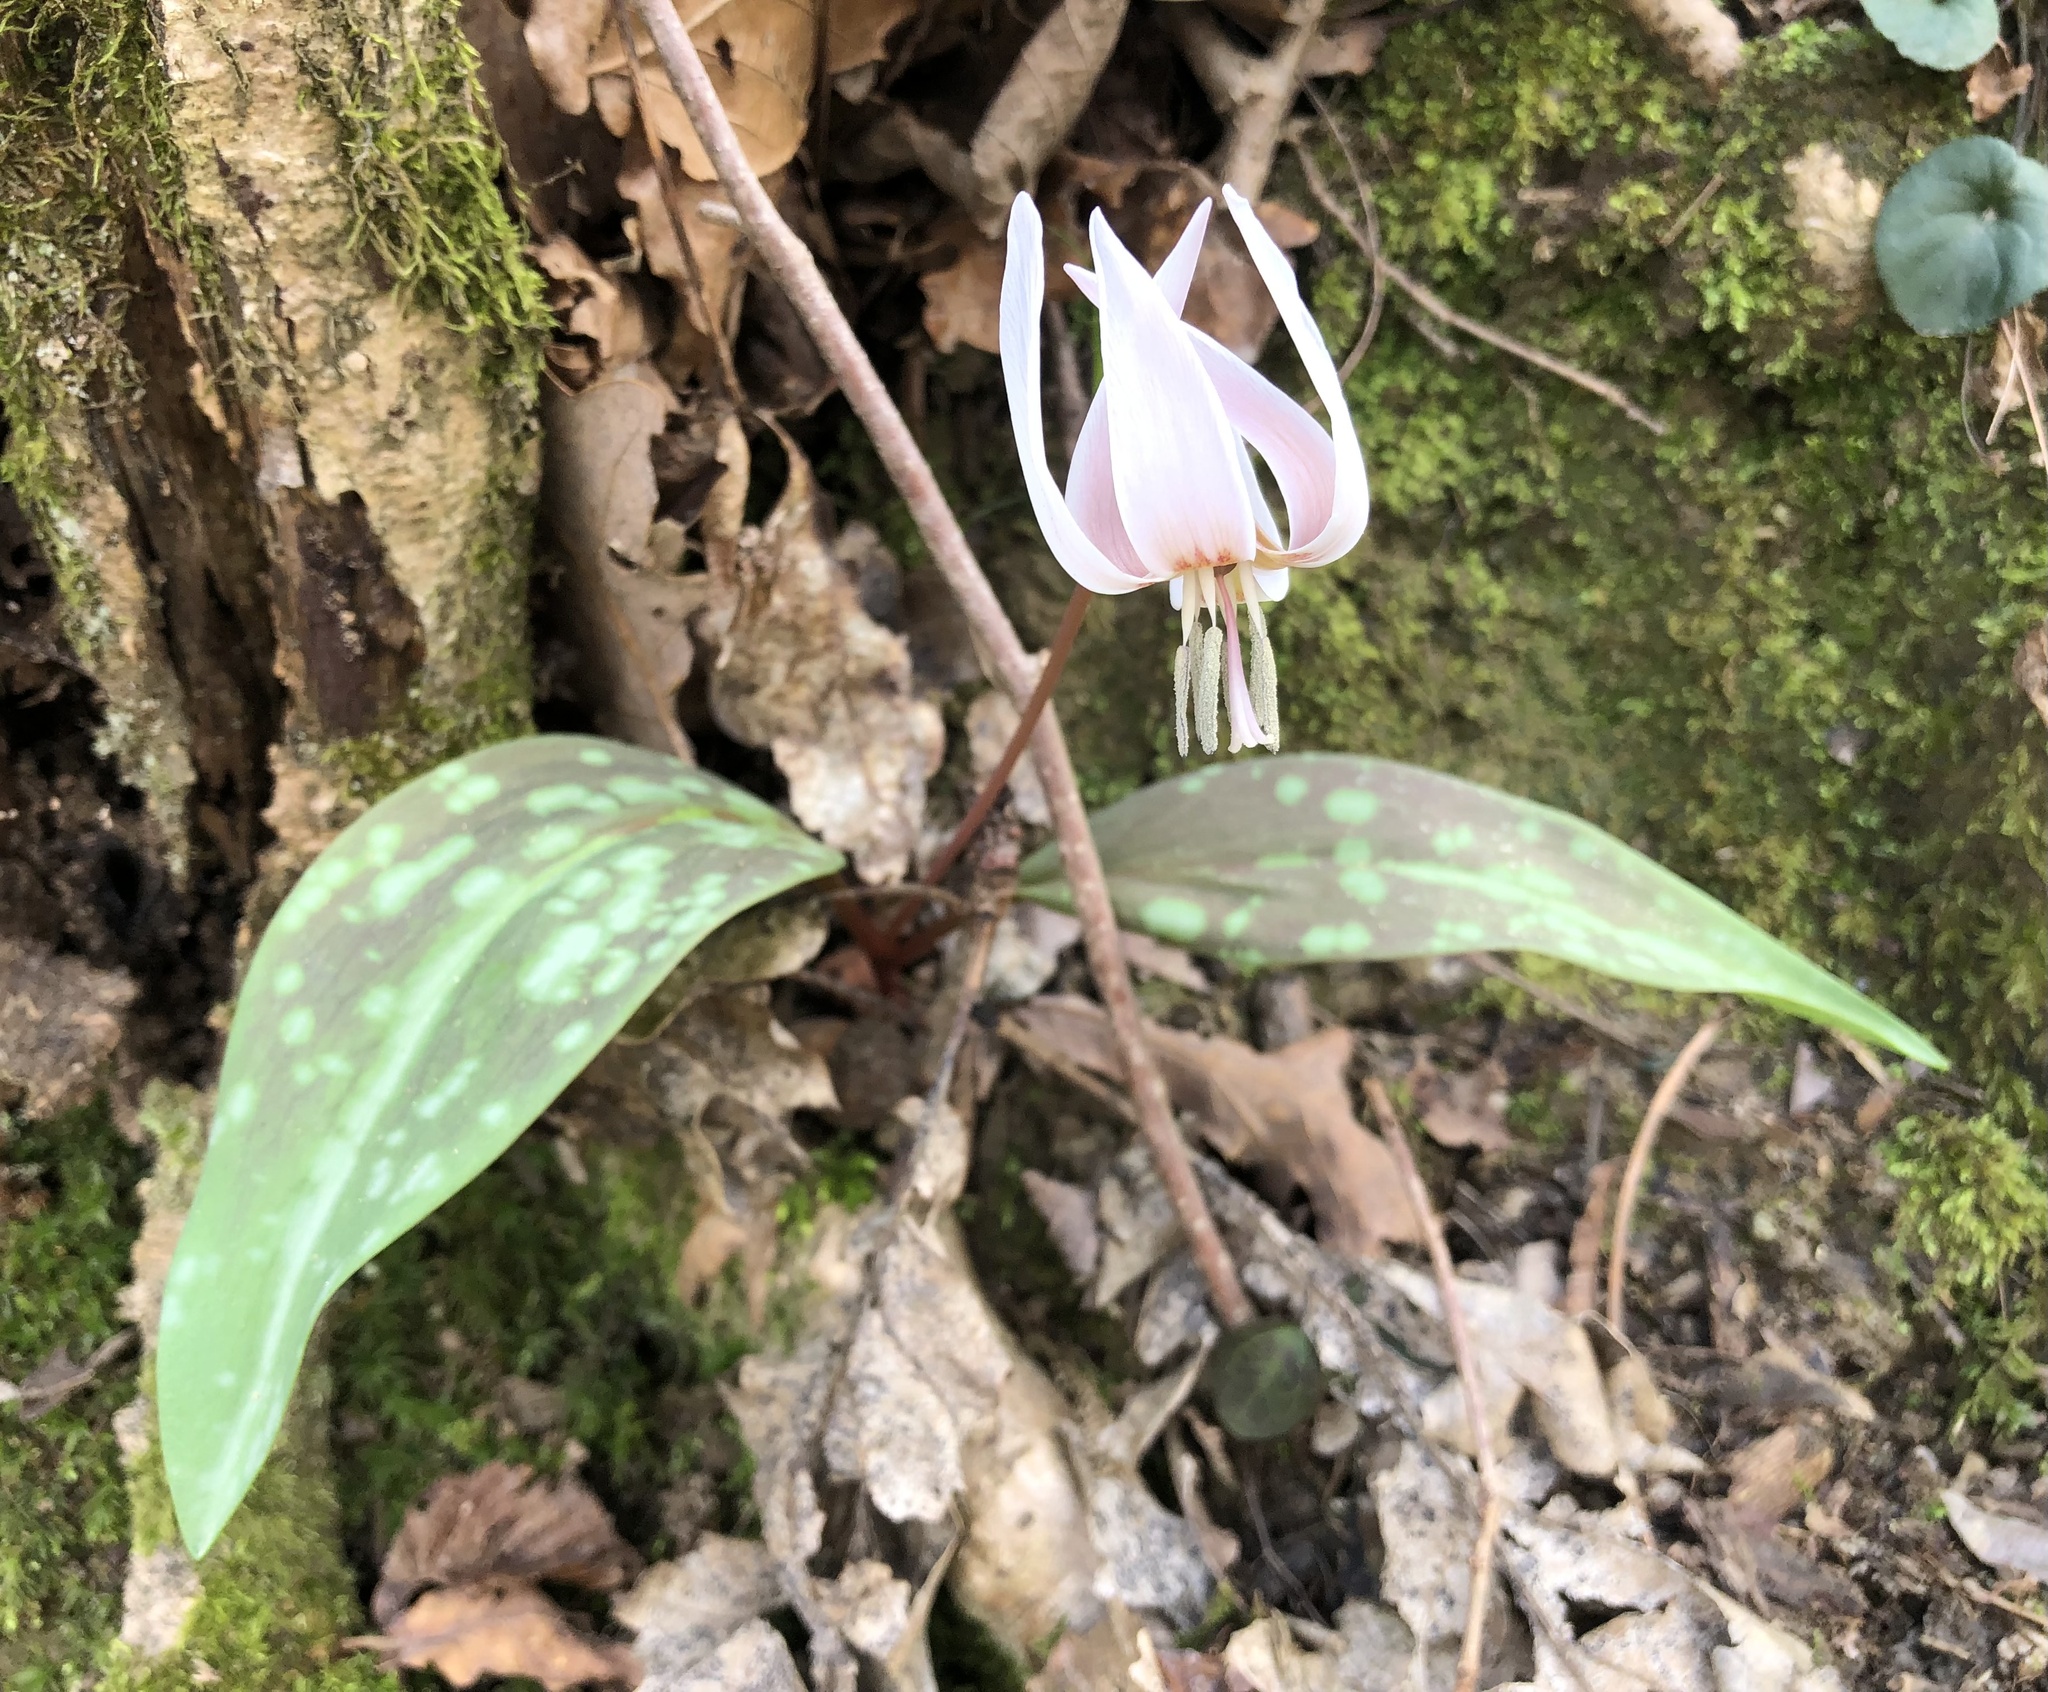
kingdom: Plantae
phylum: Tracheophyta
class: Liliopsida
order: Liliales
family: Liliaceae
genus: Erythronium
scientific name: Erythronium dens-canis
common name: Dog's-tooth-violet
